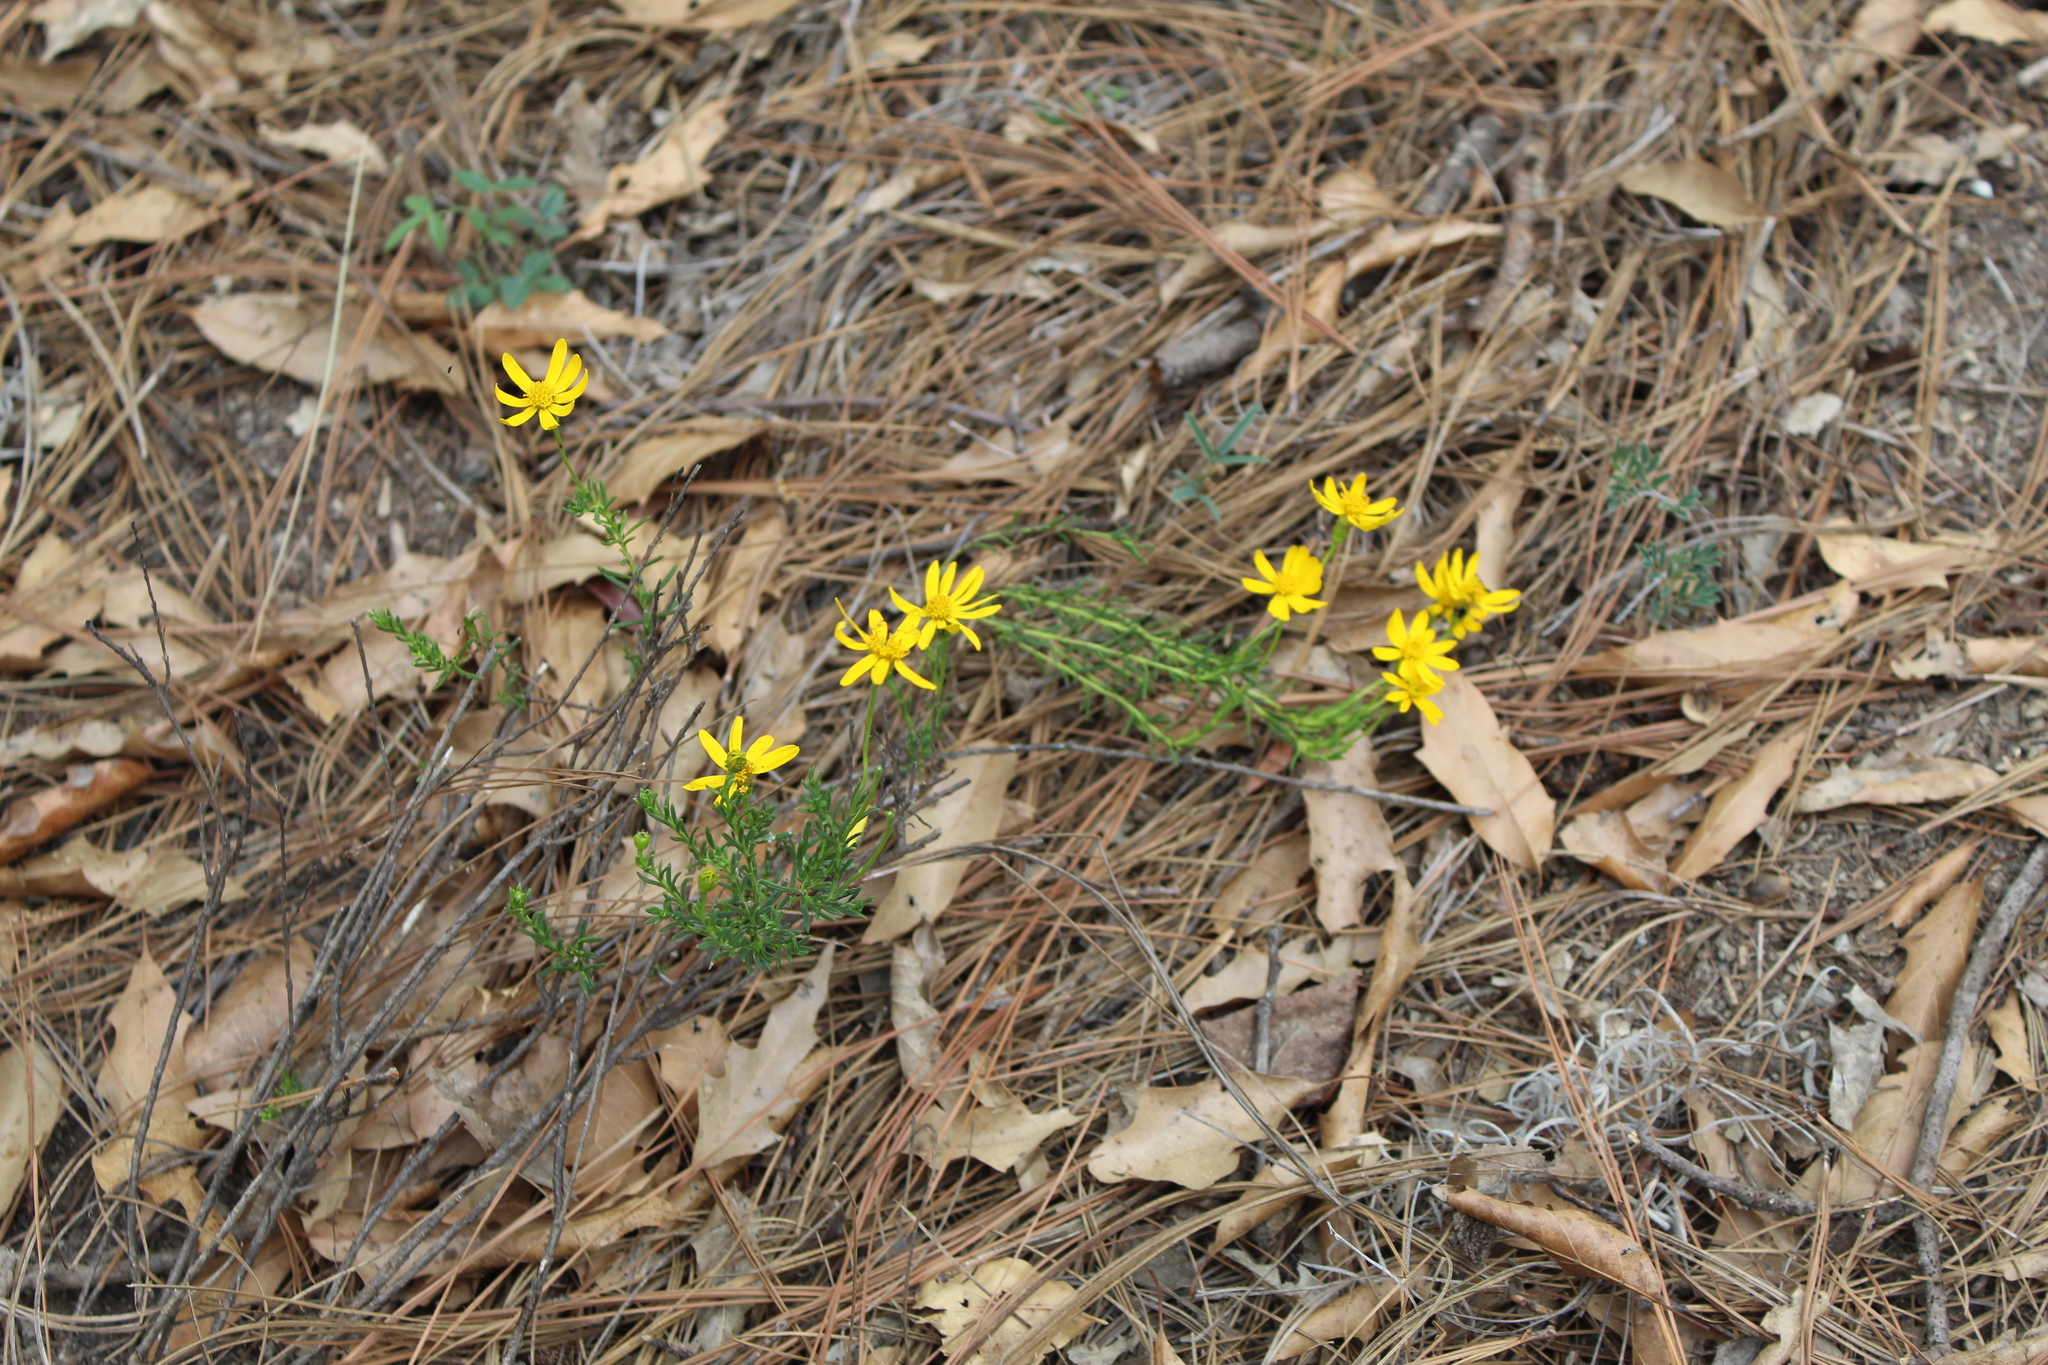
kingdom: Plantae
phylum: Tracheophyta
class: Magnoliopsida
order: Asterales
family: Asteraceae
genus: Chrysactinia
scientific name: Chrysactinia mexicana
